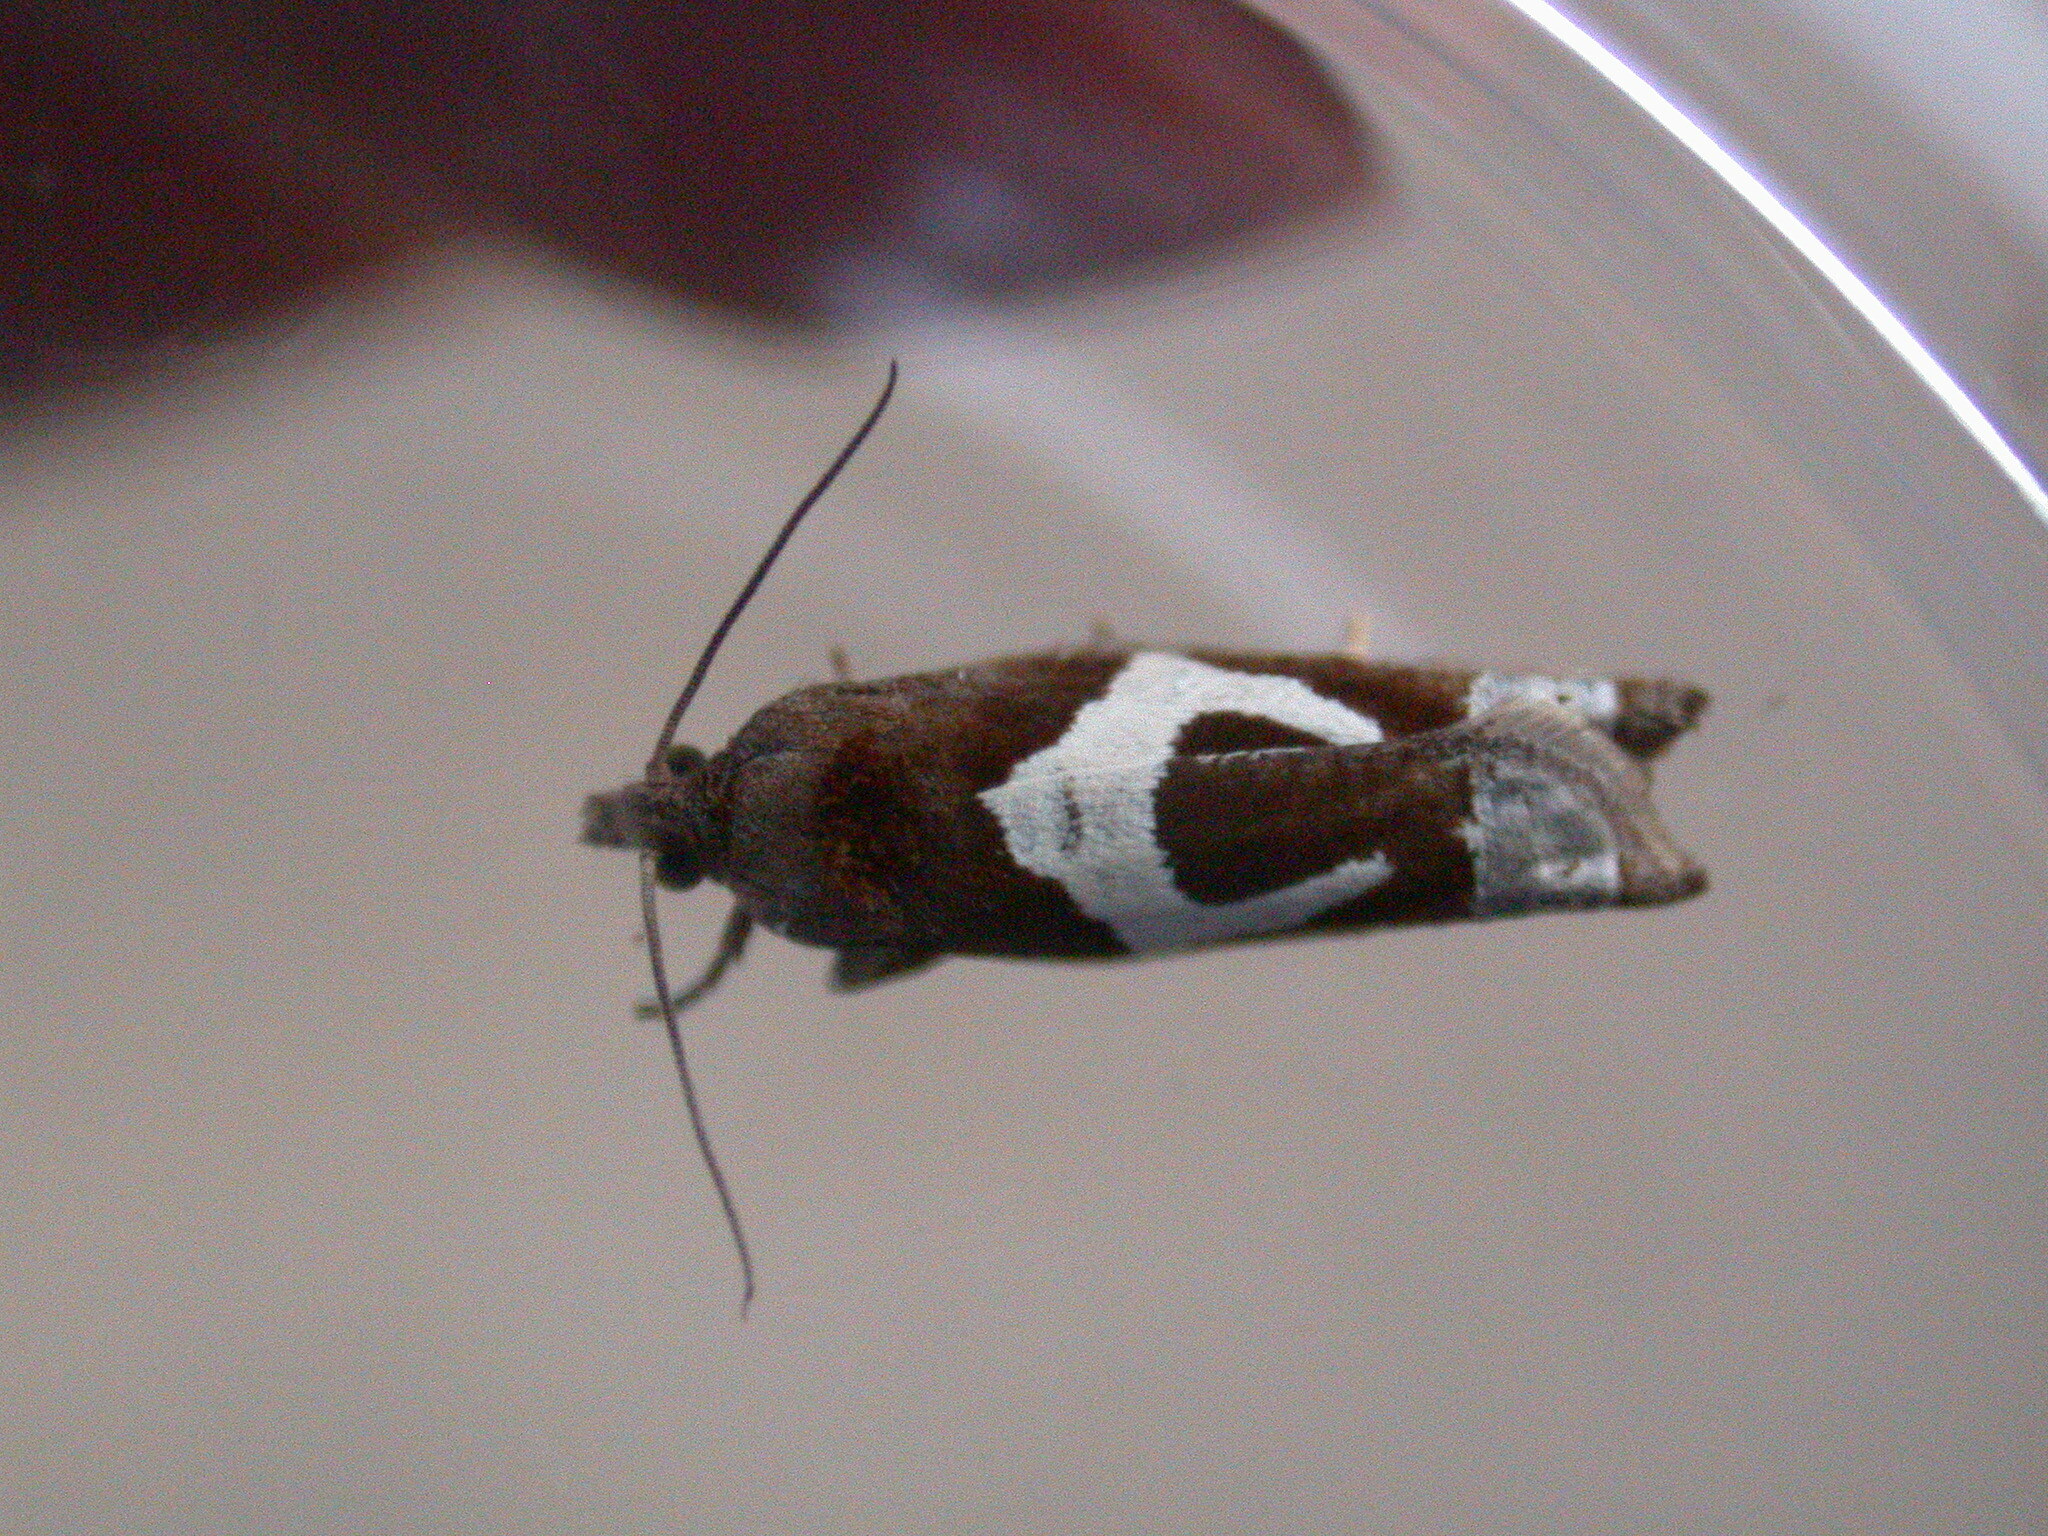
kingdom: Animalia
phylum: Arthropoda
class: Insecta
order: Lepidoptera
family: Tortricidae
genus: Epiblema
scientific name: Epiblema foenella
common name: White-foot bell
